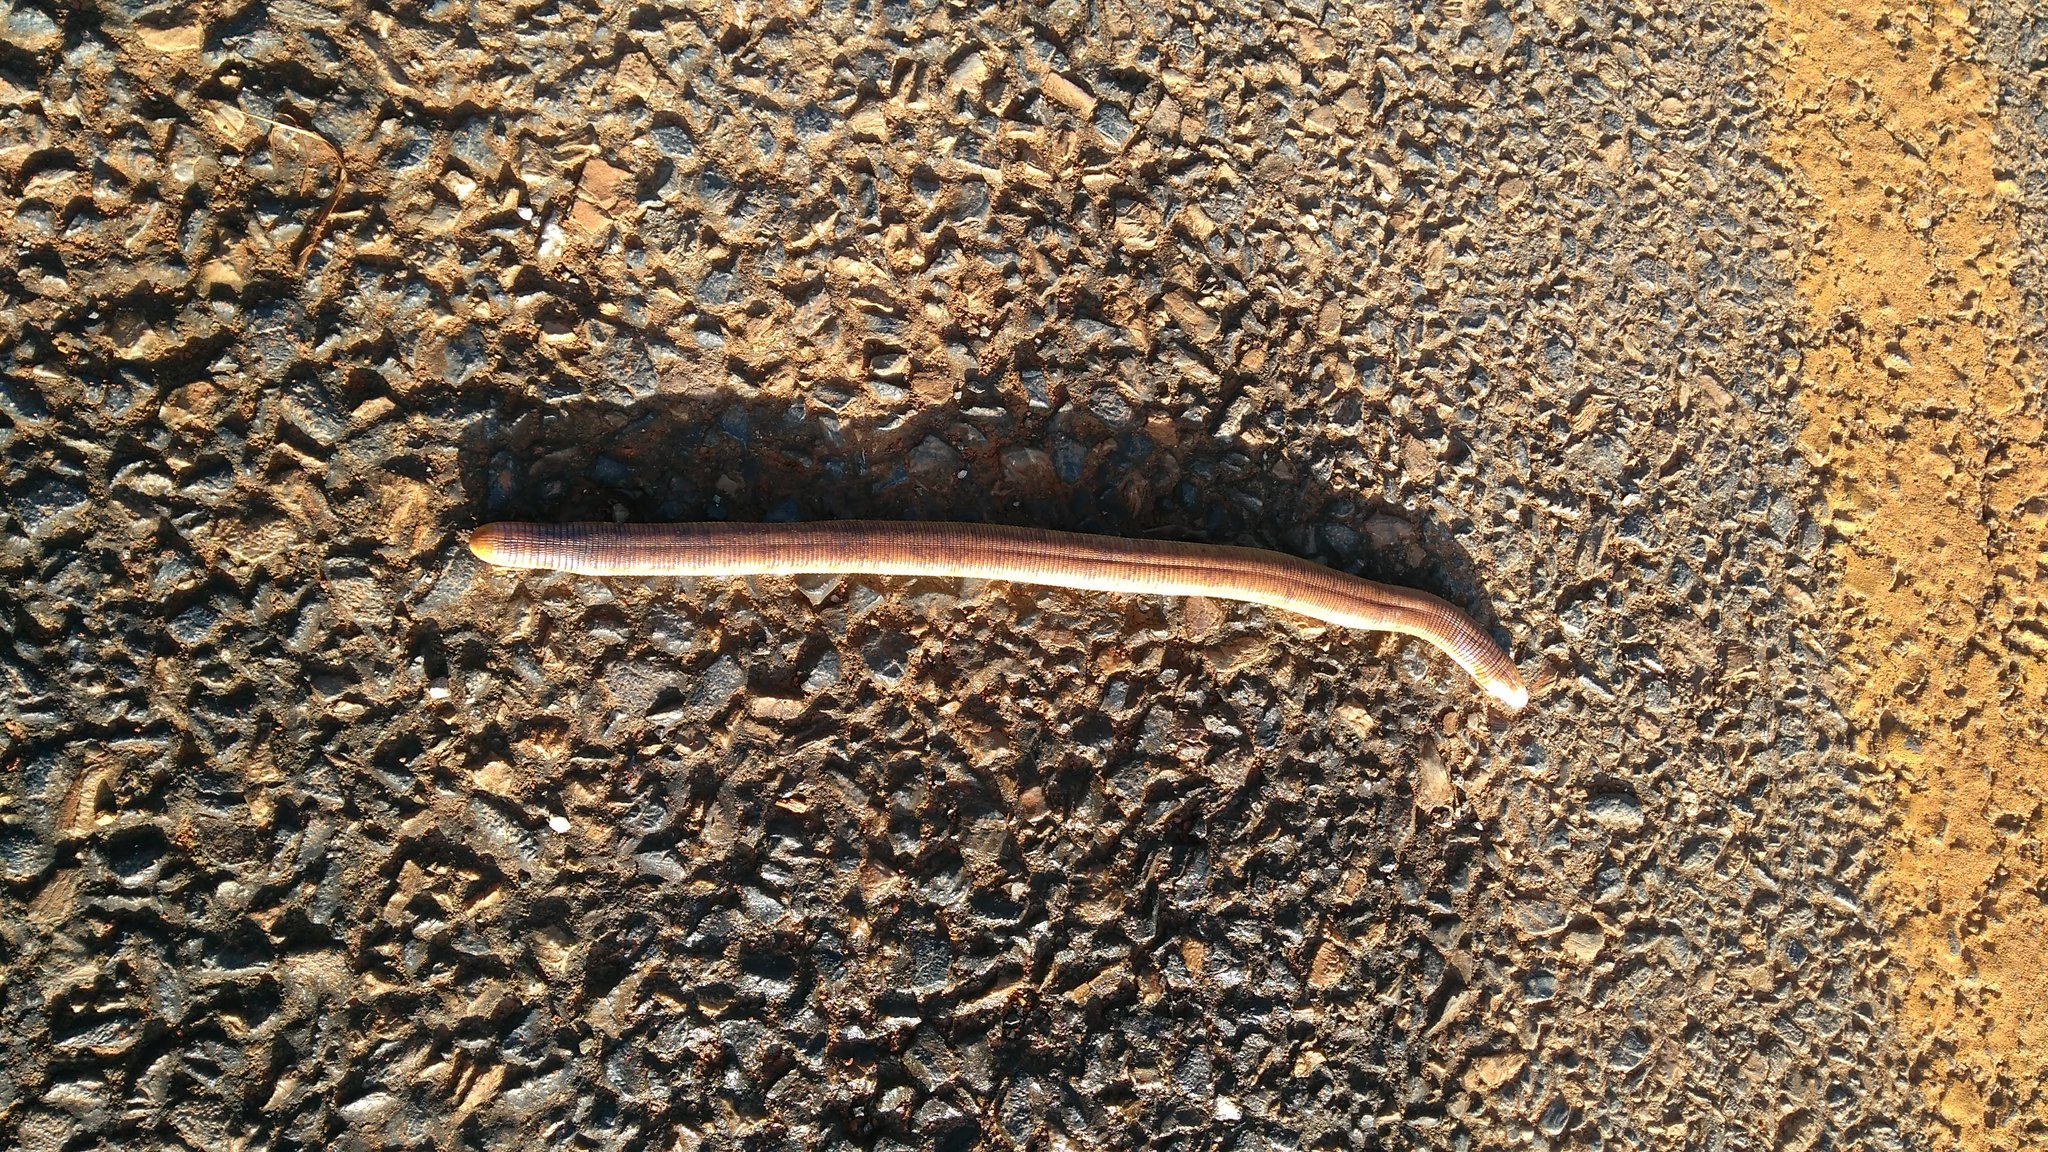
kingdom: Animalia
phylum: Chordata
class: Squamata
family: Amphisbaenidae
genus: Amphisbaena
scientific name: Amphisbaena alba
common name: Red worm lizard
